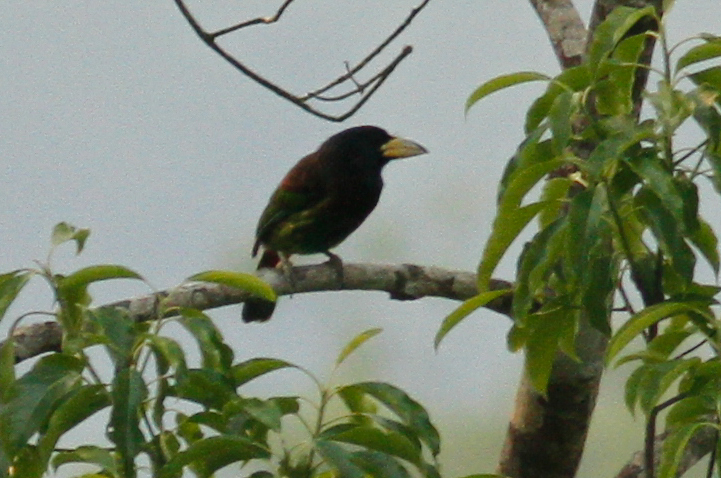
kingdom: Animalia
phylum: Chordata
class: Aves
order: Piciformes
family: Megalaimidae
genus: Psilopogon
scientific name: Psilopogon virens
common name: Great barbet
